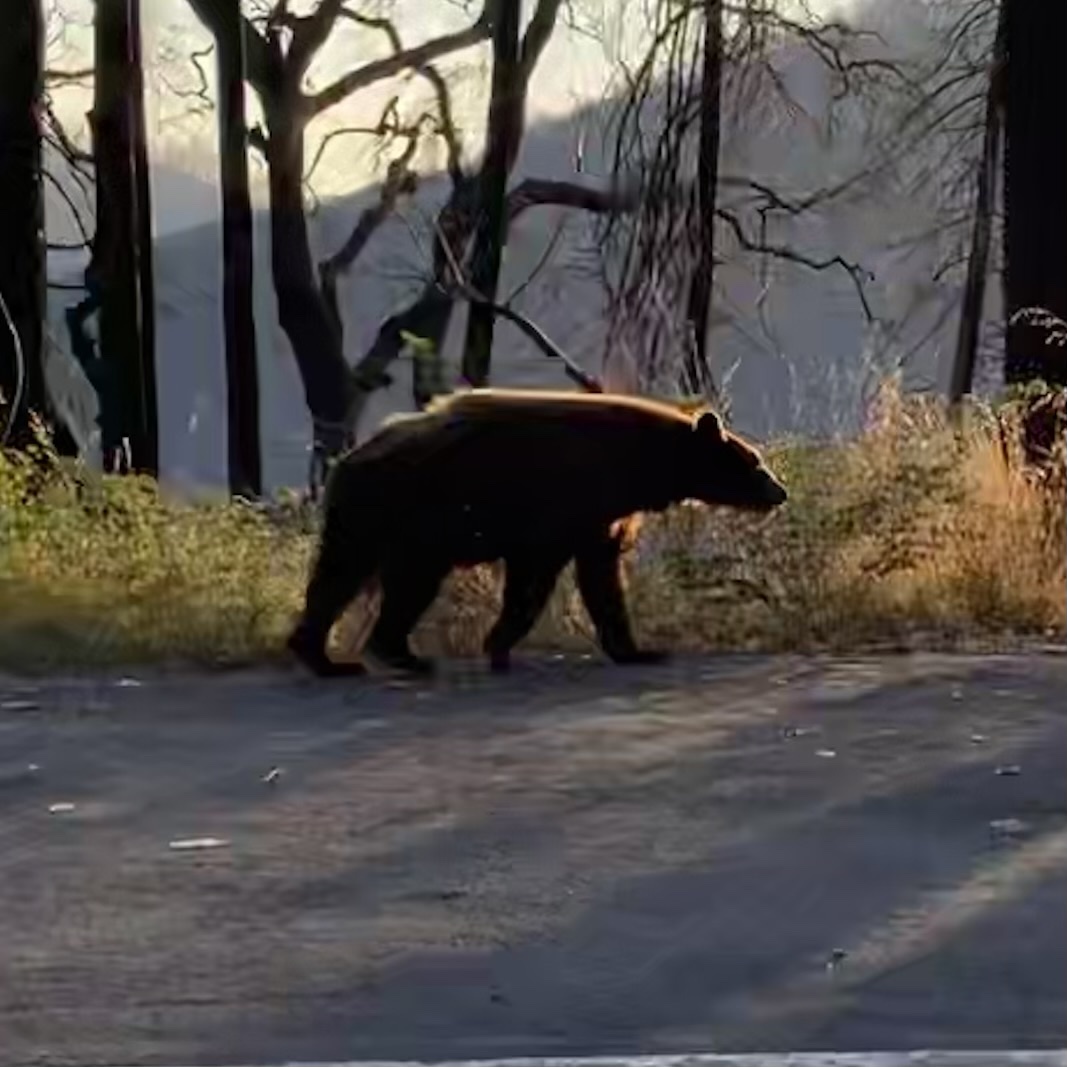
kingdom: Animalia
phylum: Chordata
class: Mammalia
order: Carnivora
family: Ursidae
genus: Ursus
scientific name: Ursus americanus
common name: American black bear
